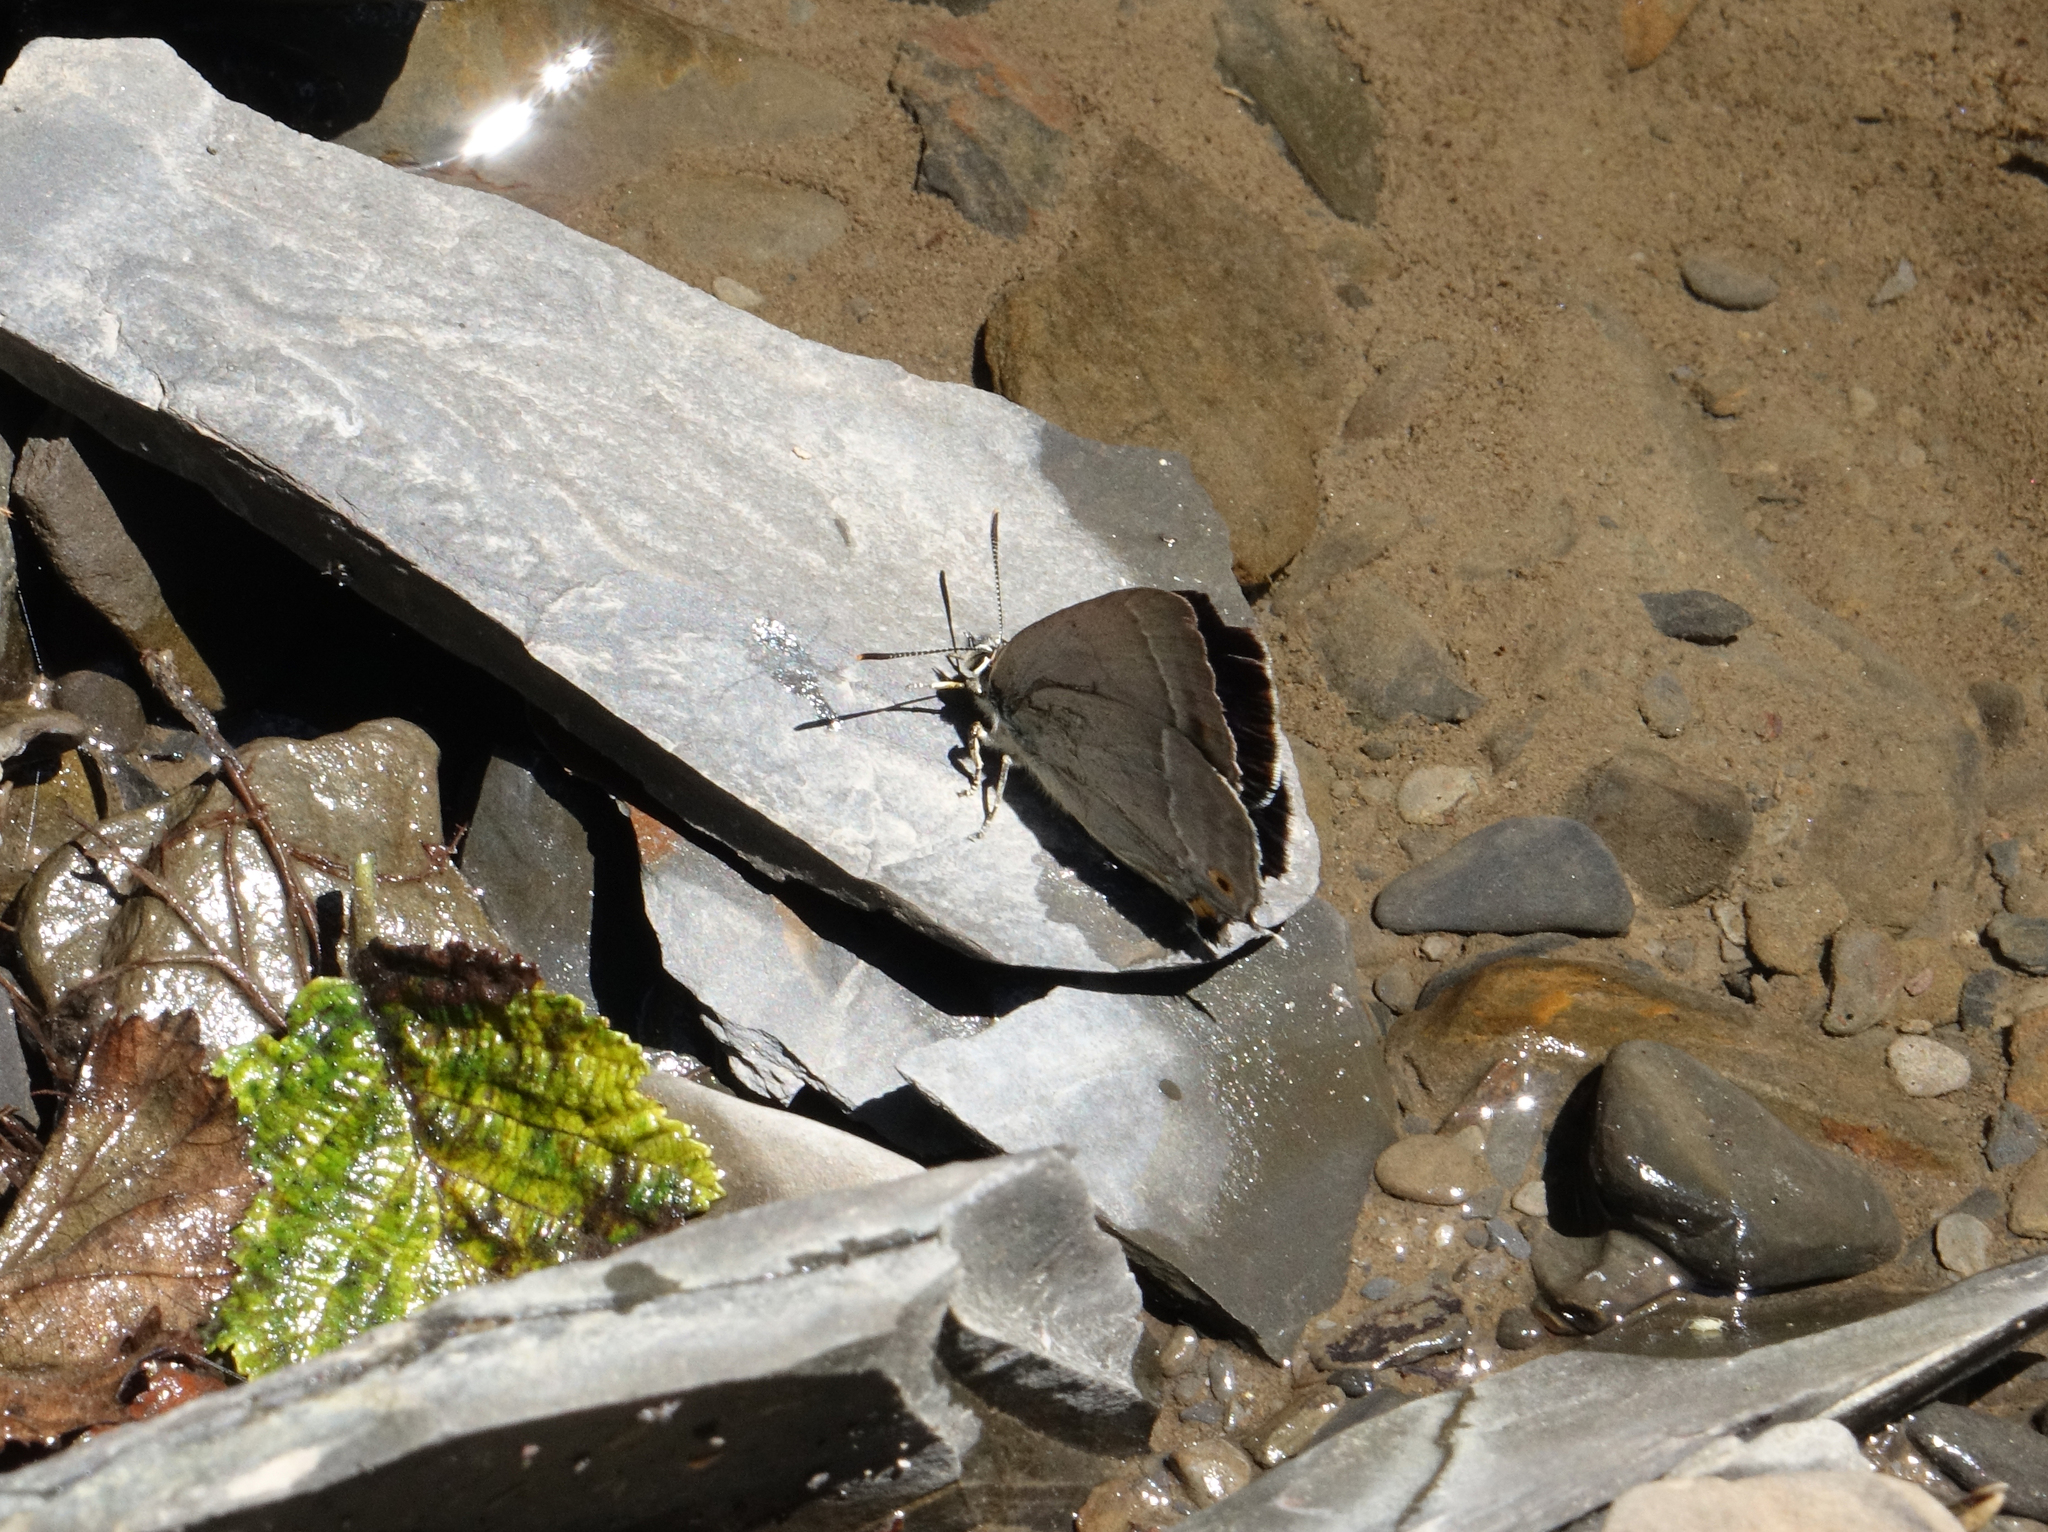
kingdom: Animalia
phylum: Arthropoda
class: Insecta
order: Lepidoptera
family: Lycaenidae
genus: Quercusia
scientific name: Quercusia quercus
